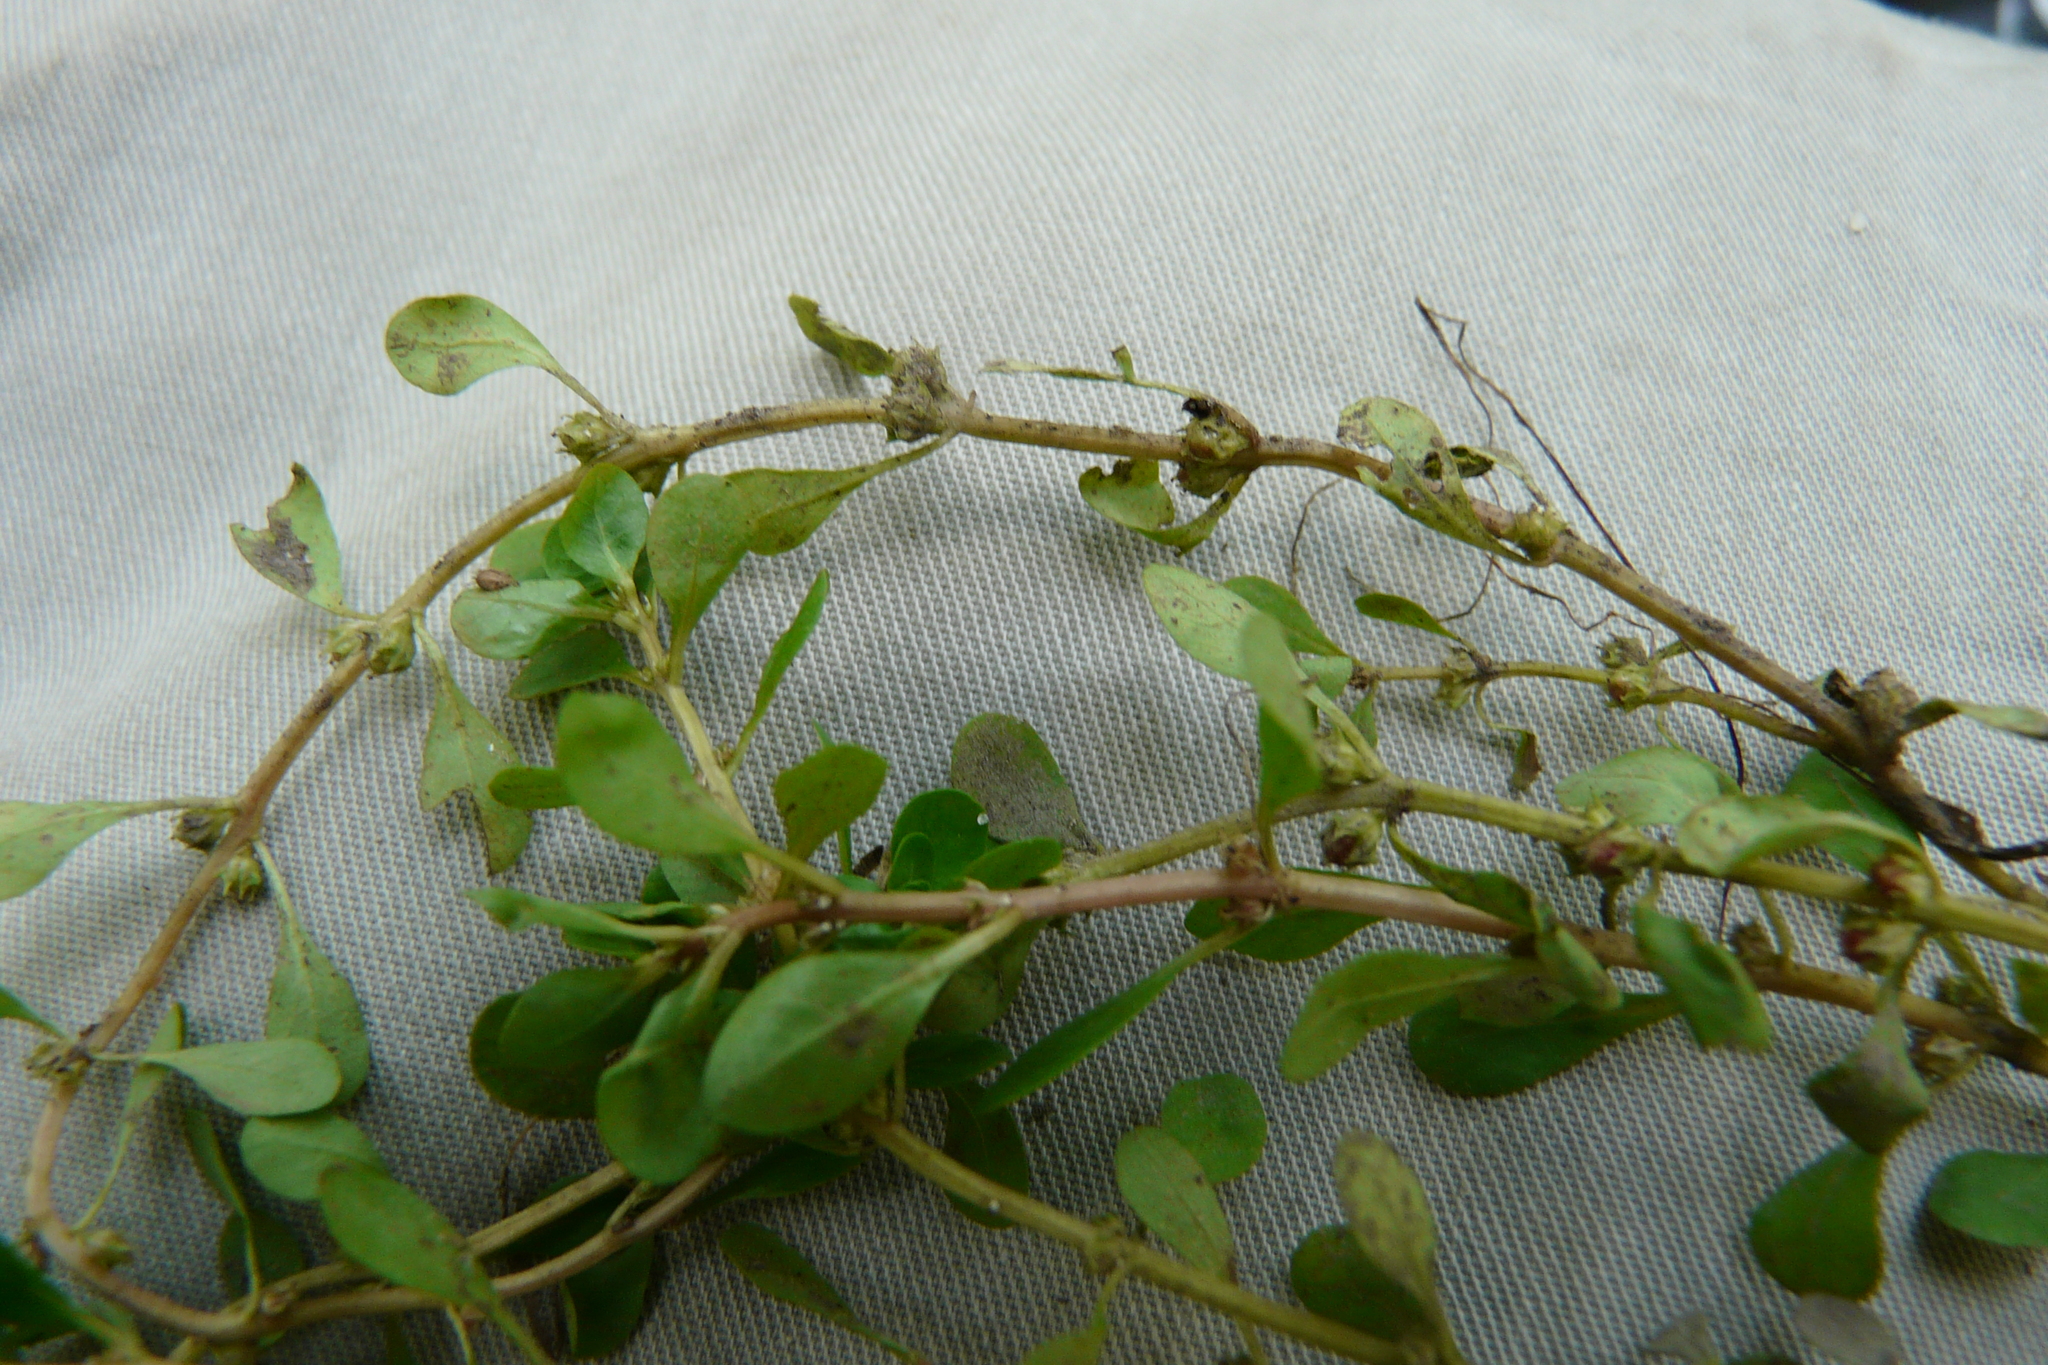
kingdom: Plantae
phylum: Tracheophyta
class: Magnoliopsida
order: Myrtales
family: Lythraceae
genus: Lythrum
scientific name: Lythrum portula
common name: Water purslane
